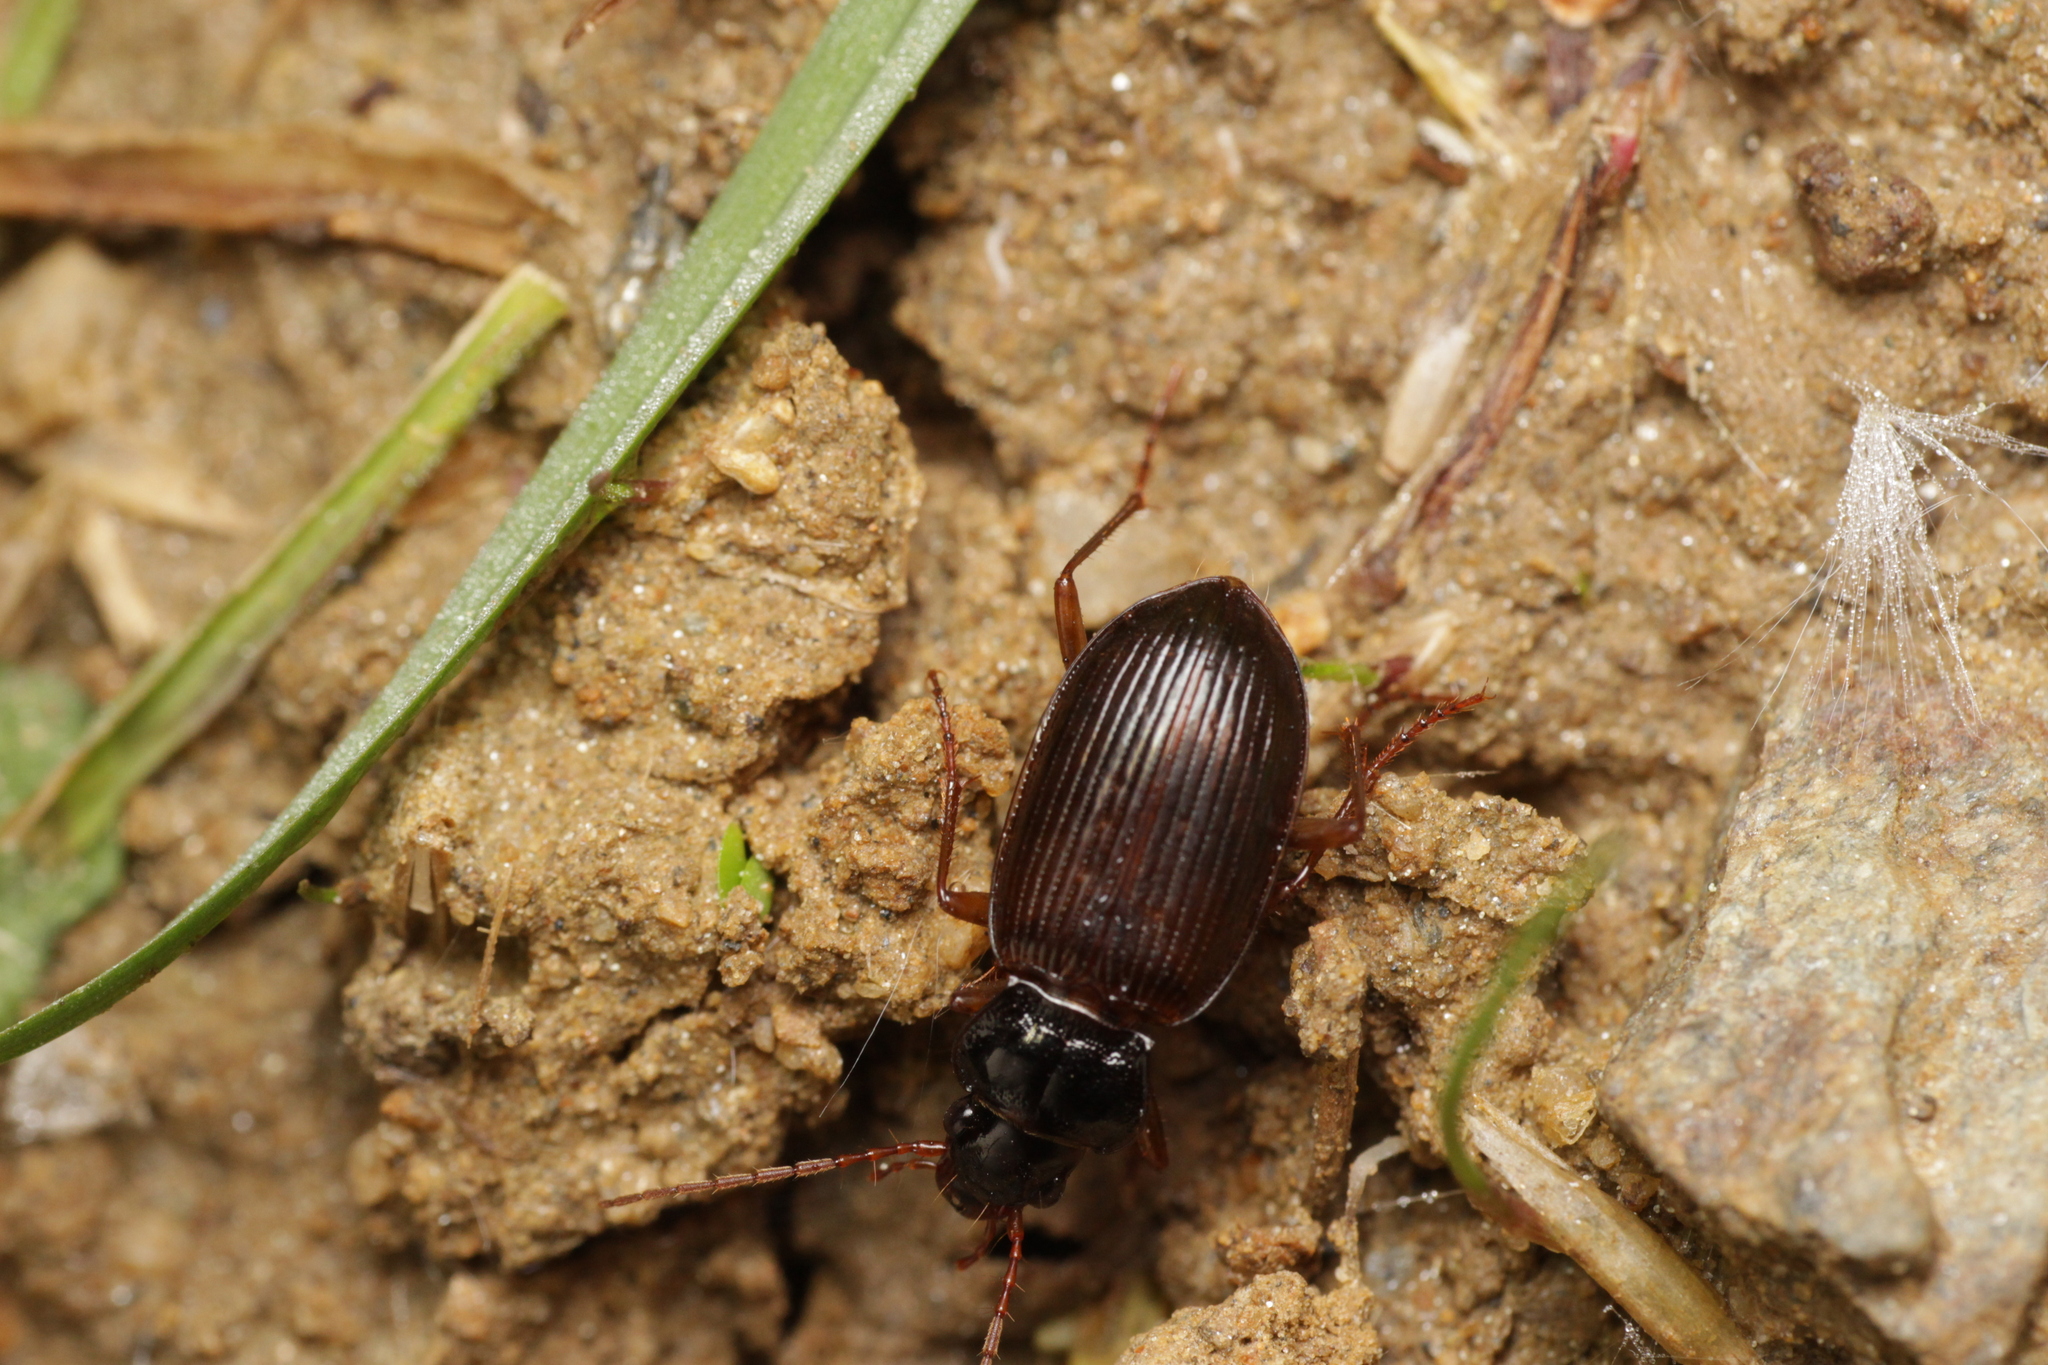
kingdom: Animalia
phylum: Arthropoda
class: Insecta
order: Coleoptera
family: Carabidae
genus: Nebria
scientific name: Nebria brevicollis
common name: Short-necked gazelle beetle
